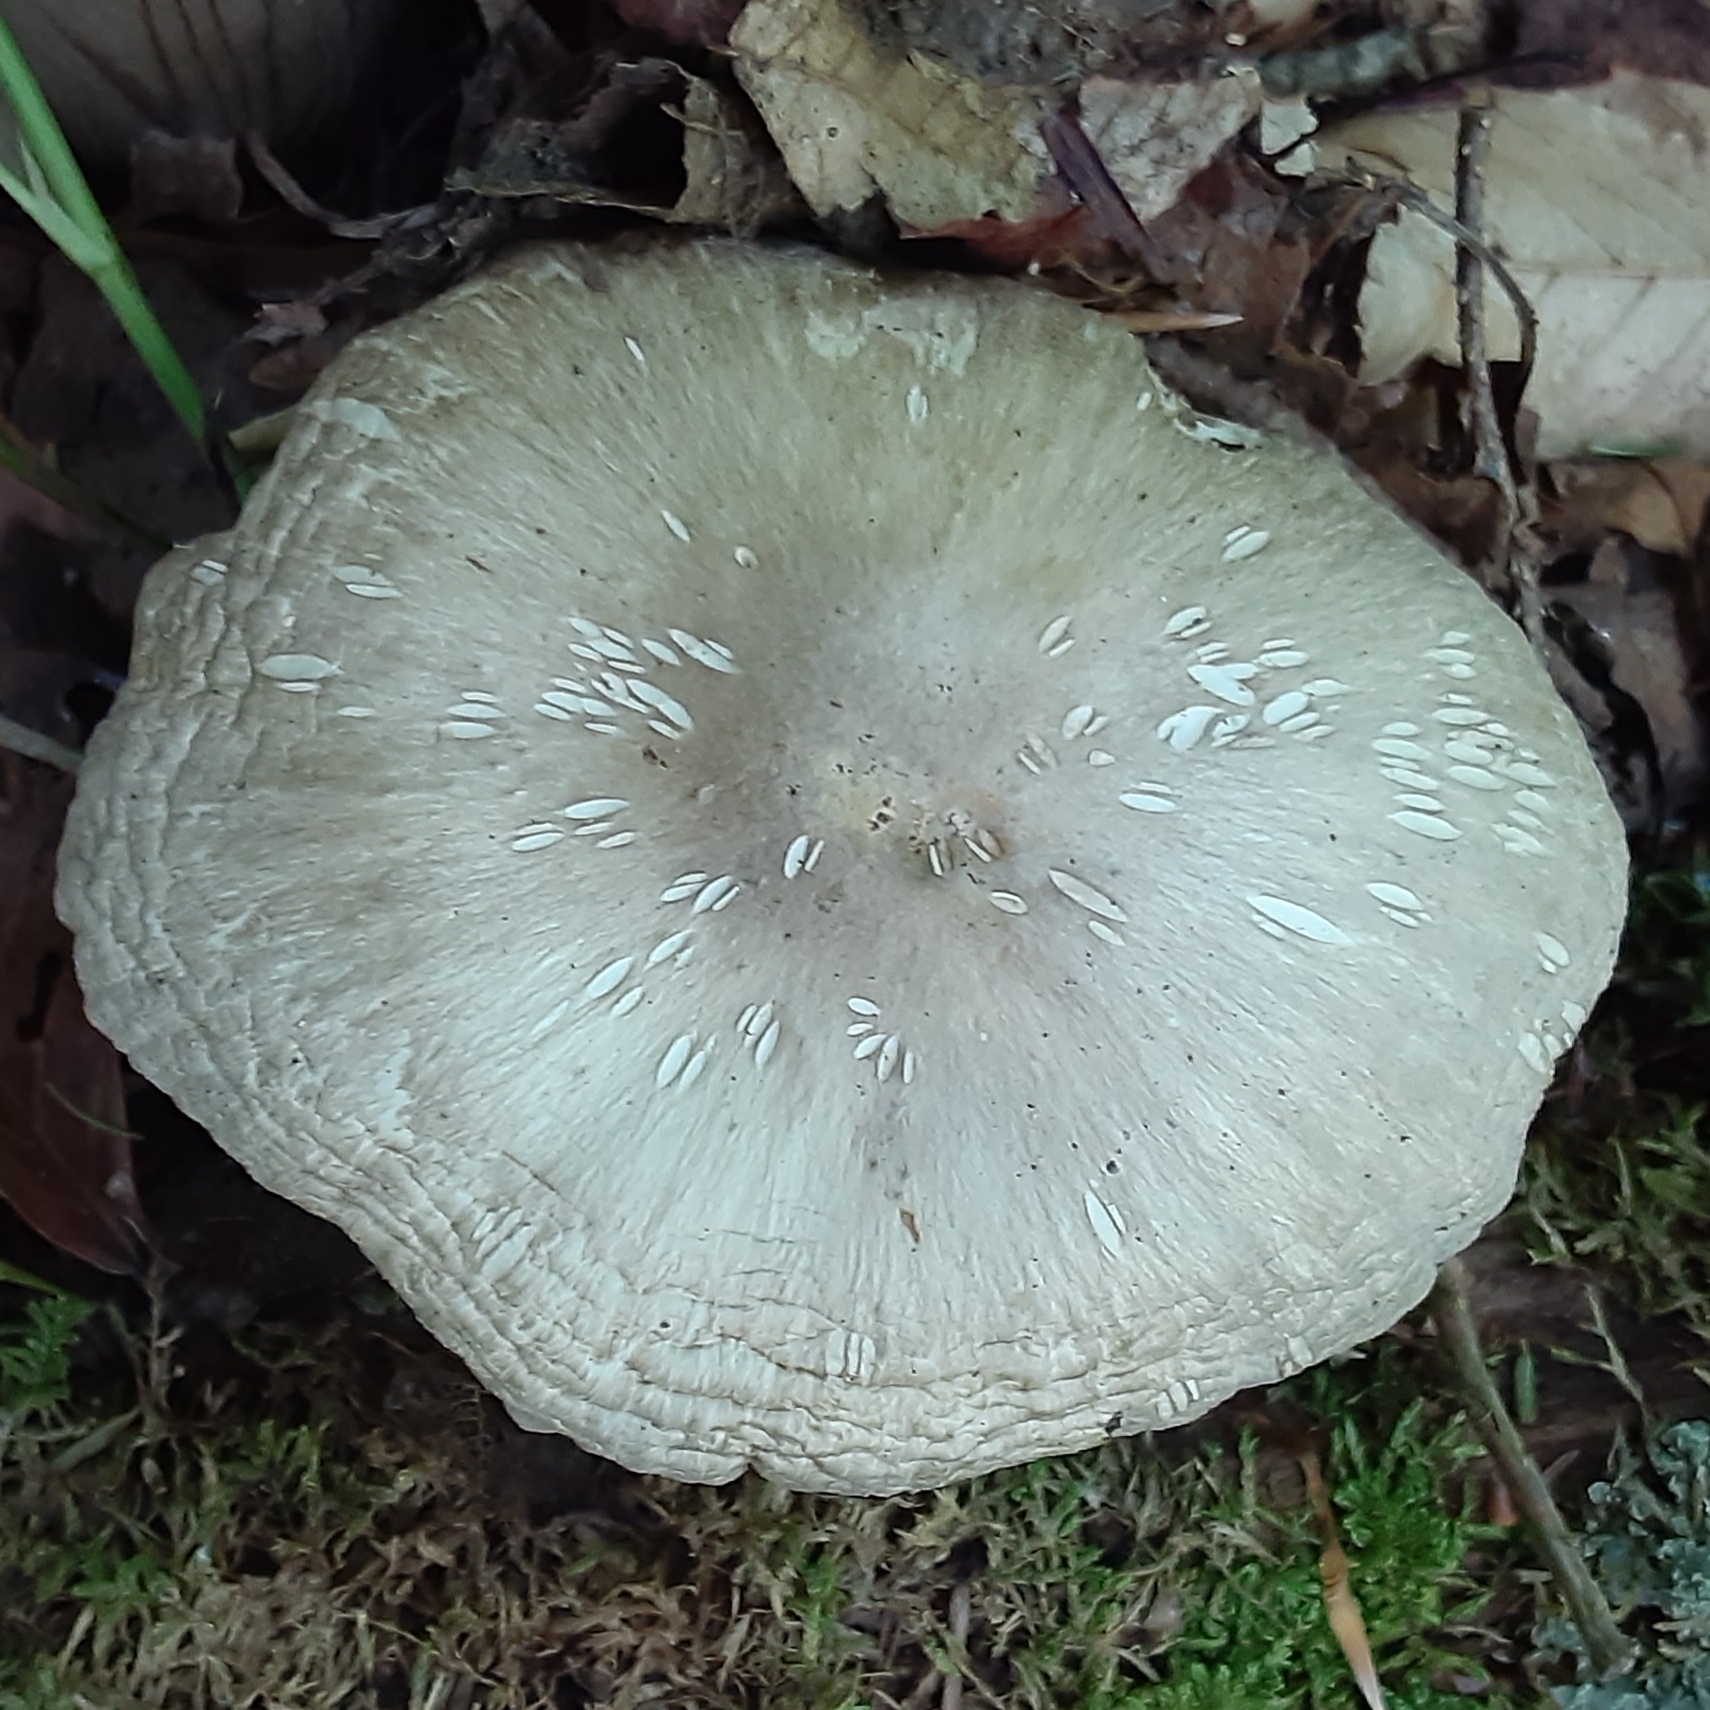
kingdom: Fungi
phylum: Basidiomycota
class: Agaricomycetes
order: Agaricales
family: Tricholomataceae
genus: Megacollybia
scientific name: Megacollybia rodmanii
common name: Eastern american platterful mushroom
